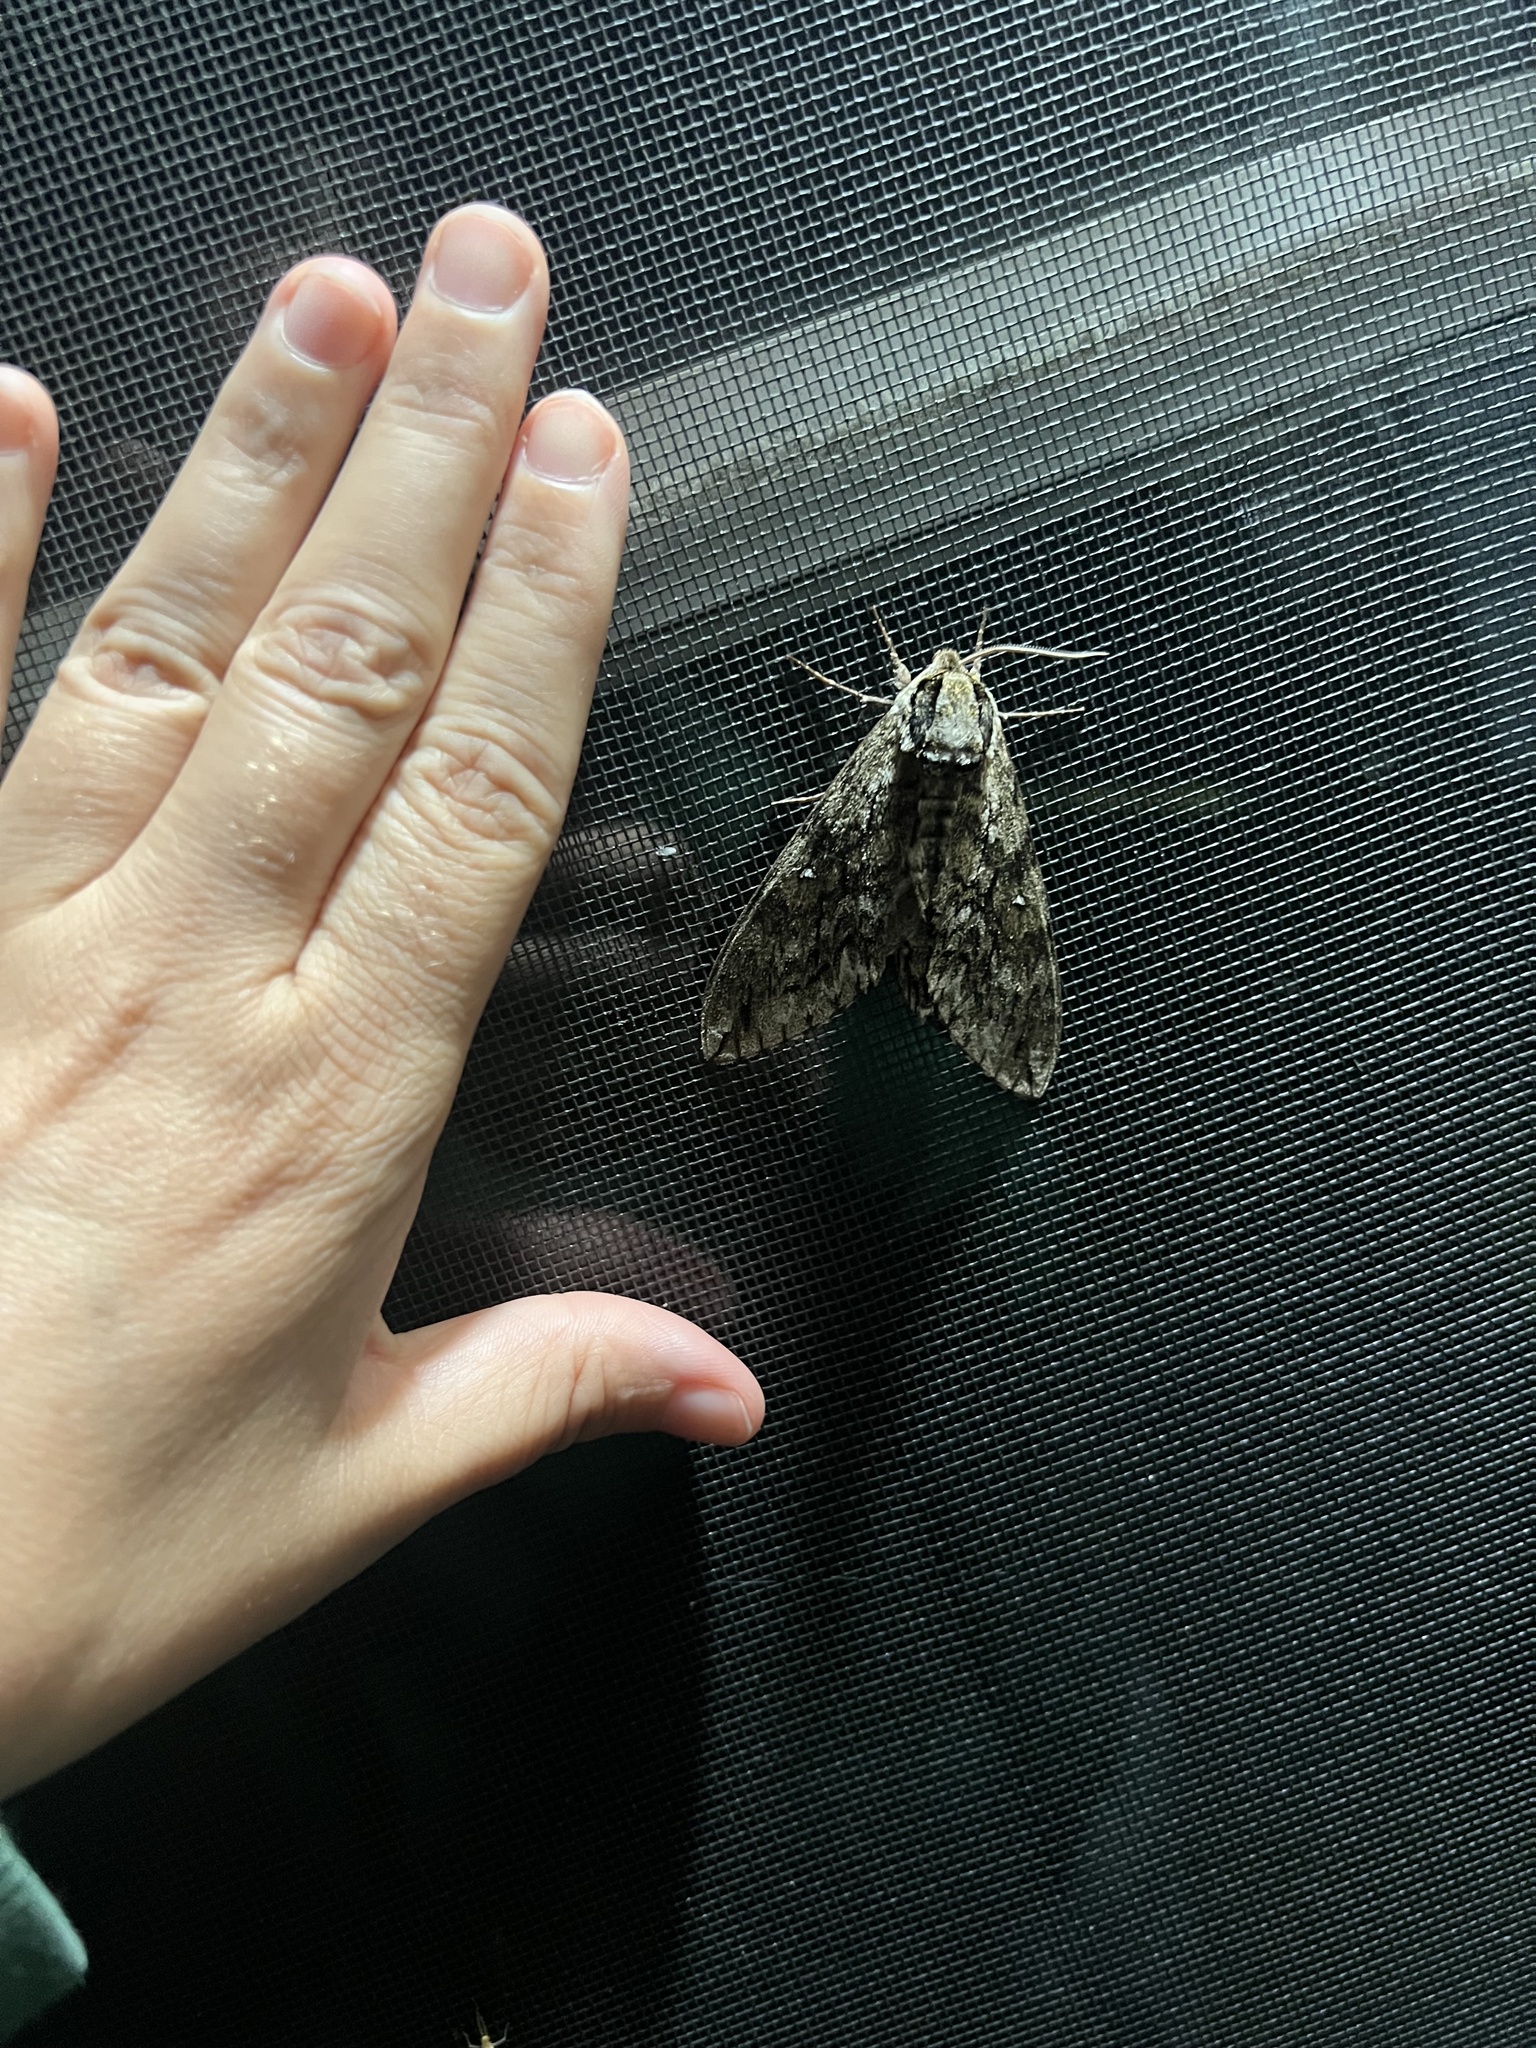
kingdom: Animalia
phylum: Arthropoda
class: Insecta
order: Lepidoptera
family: Sphingidae
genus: Ceratomia
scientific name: Ceratomia undulosa
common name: Waved sphinx
